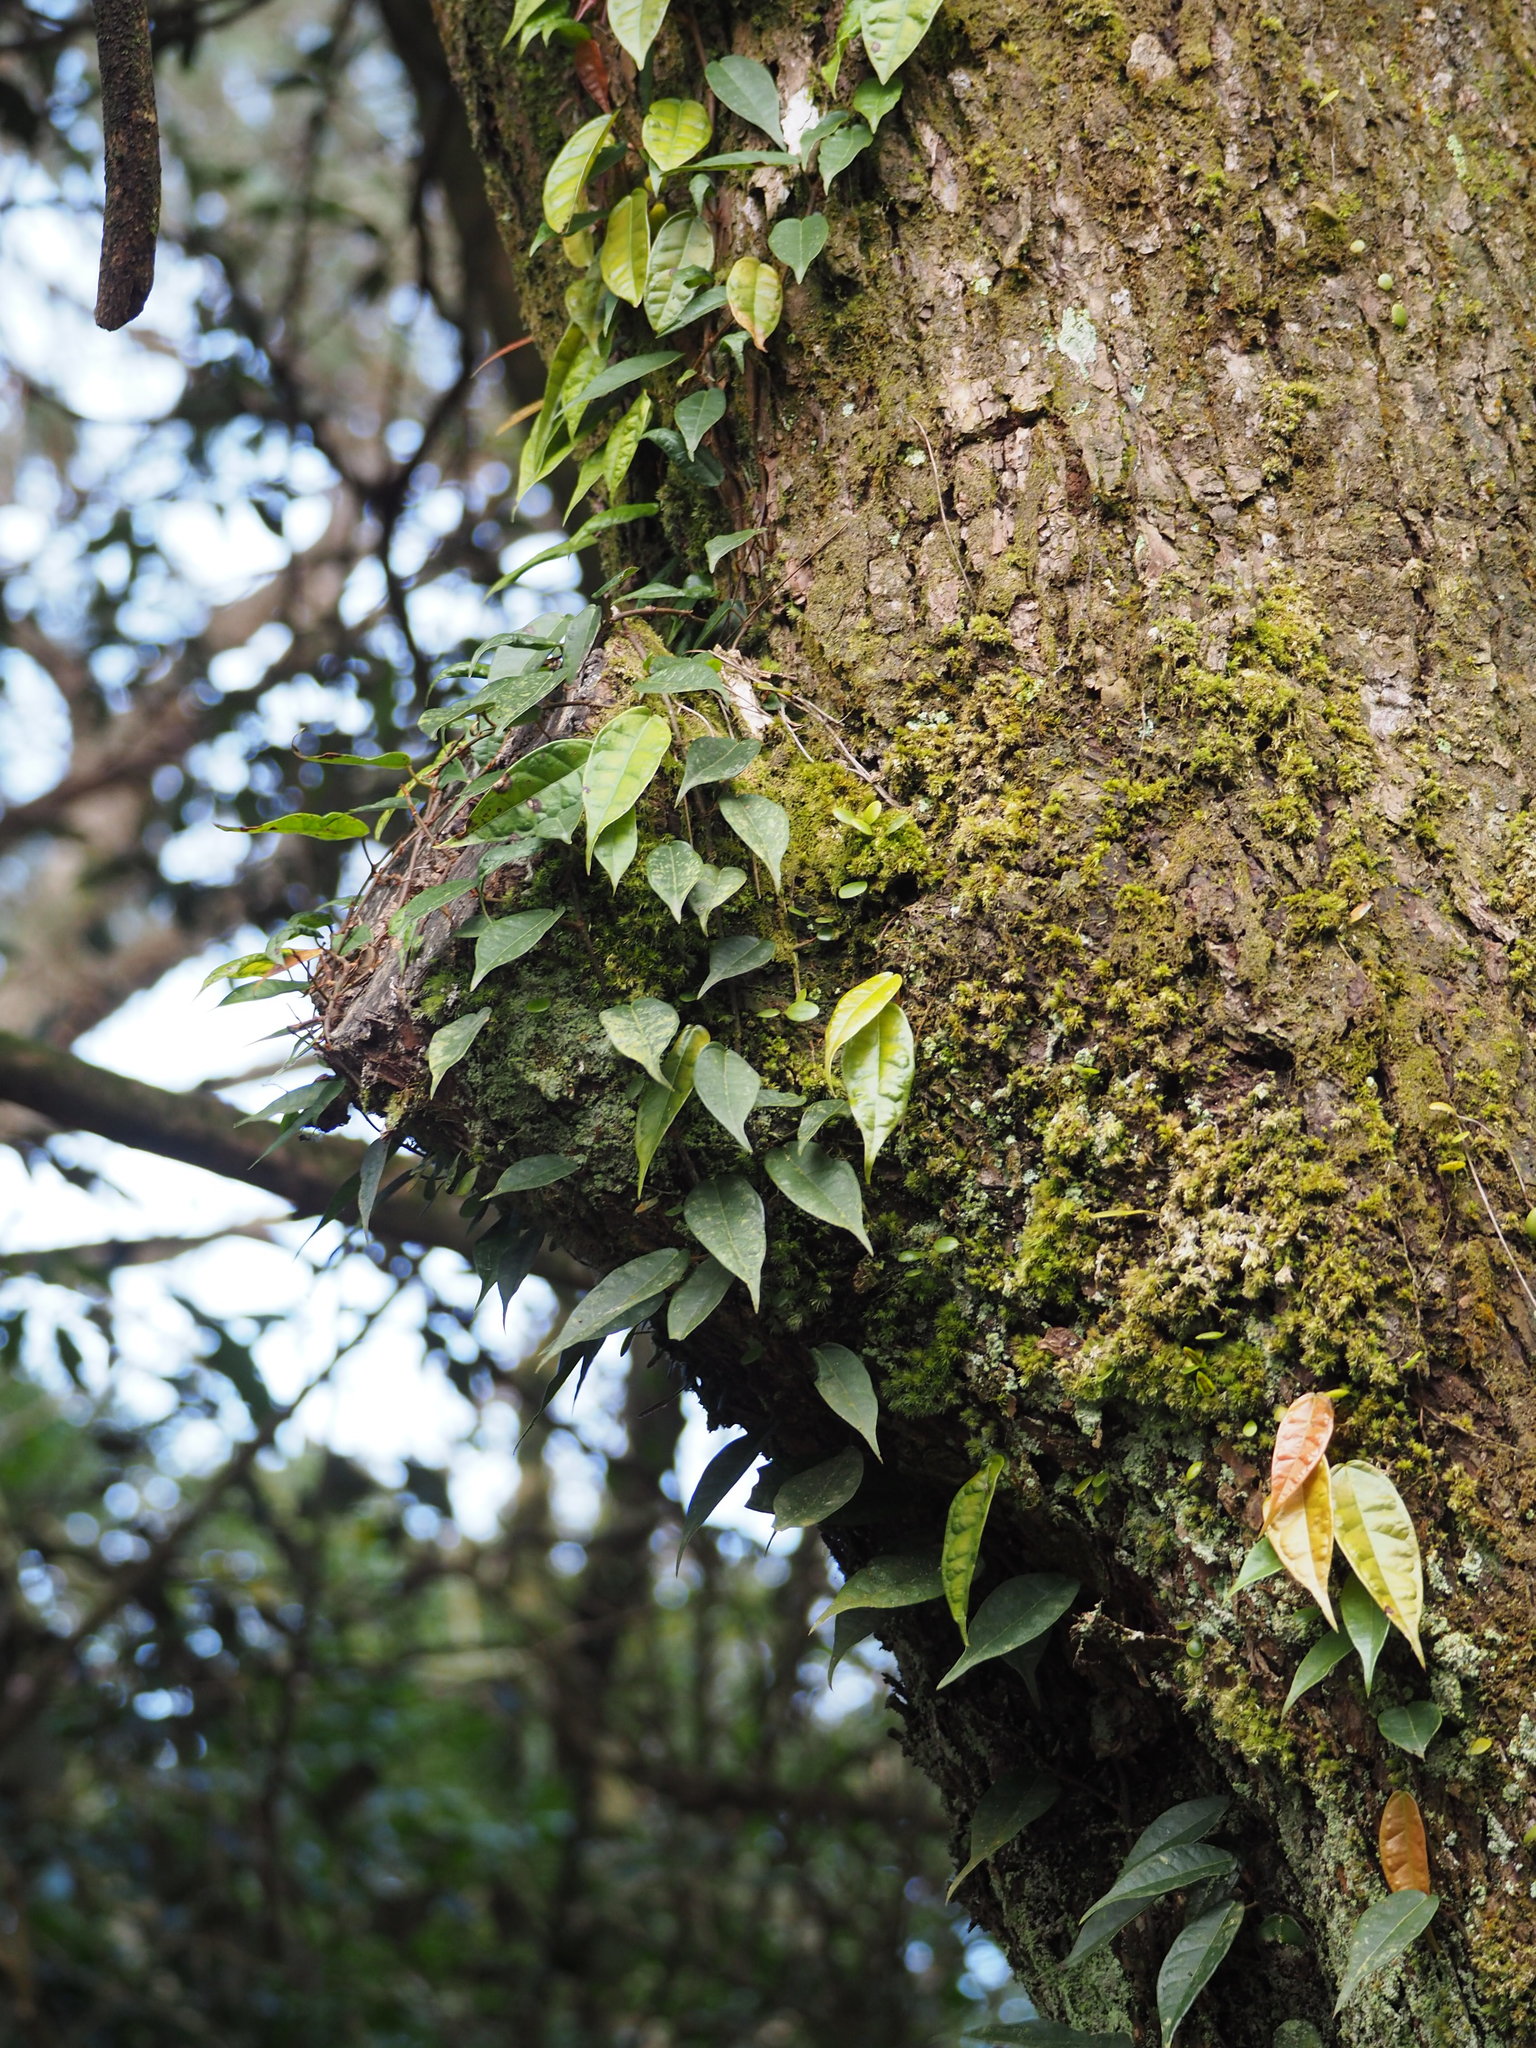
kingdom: Plantae
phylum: Tracheophyta
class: Magnoliopsida
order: Rosales
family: Moraceae
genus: Ficus
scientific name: Ficus sarmentosa
